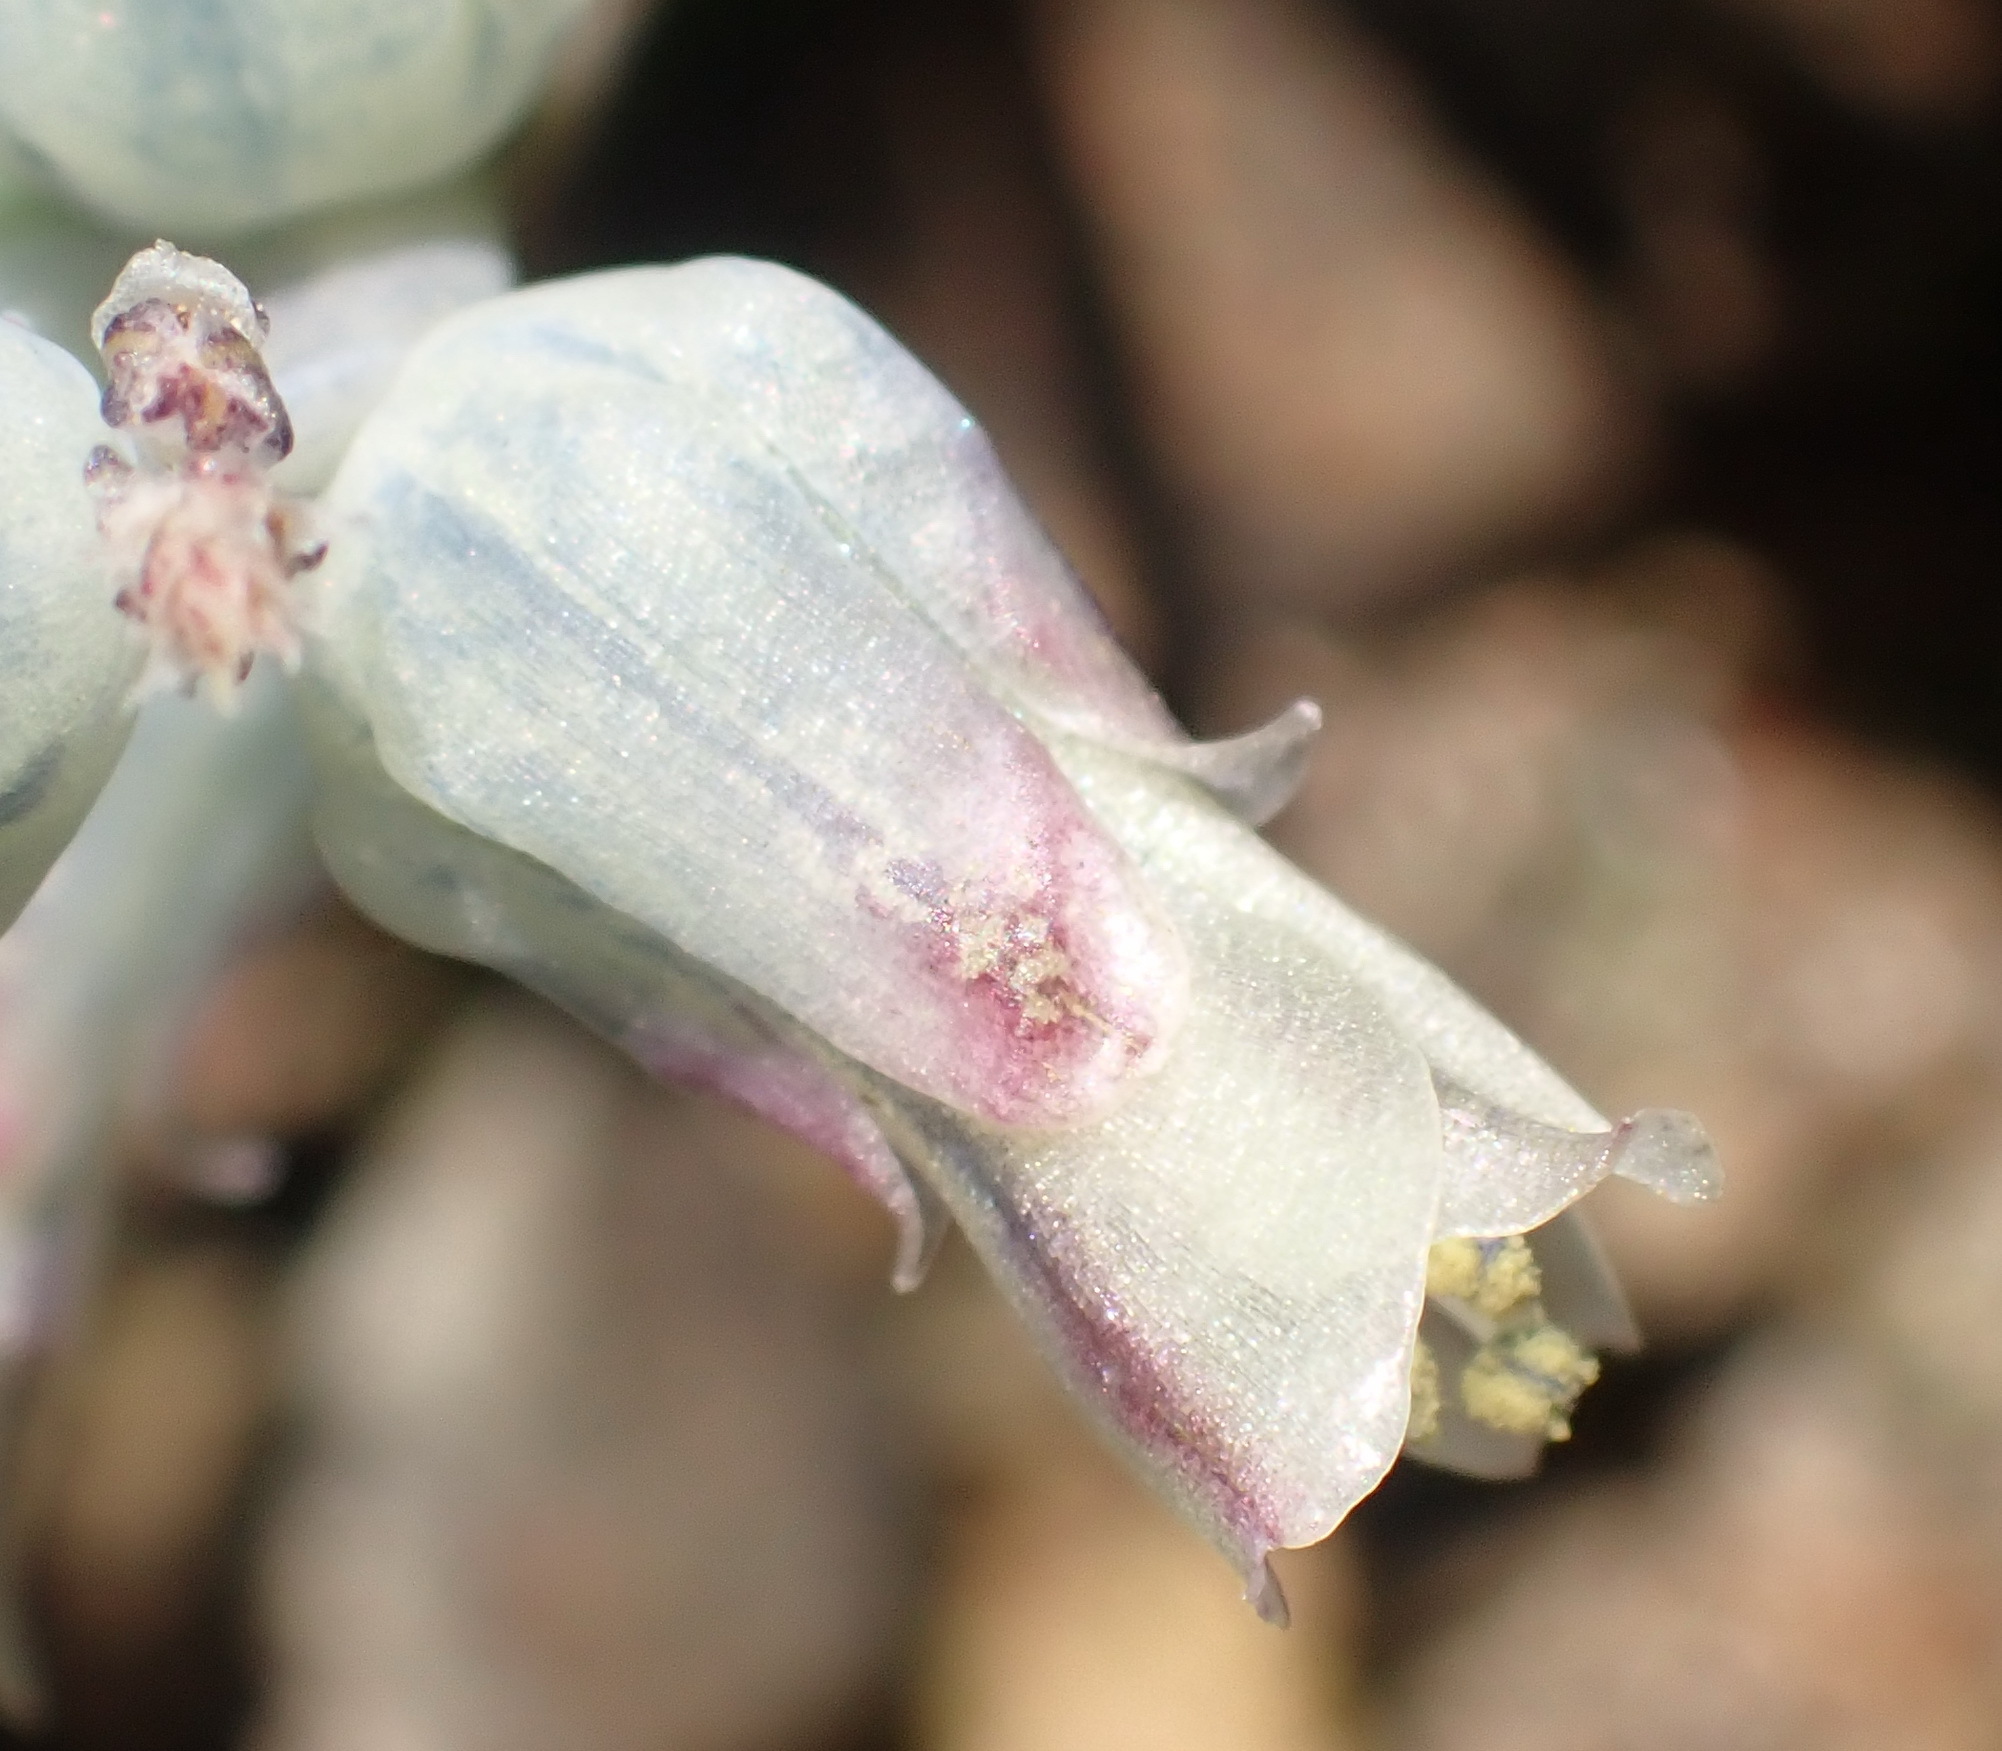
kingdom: Plantae
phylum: Tracheophyta
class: Liliopsida
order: Asparagales
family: Asparagaceae
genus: Lachenalia
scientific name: Lachenalia aurioliae
